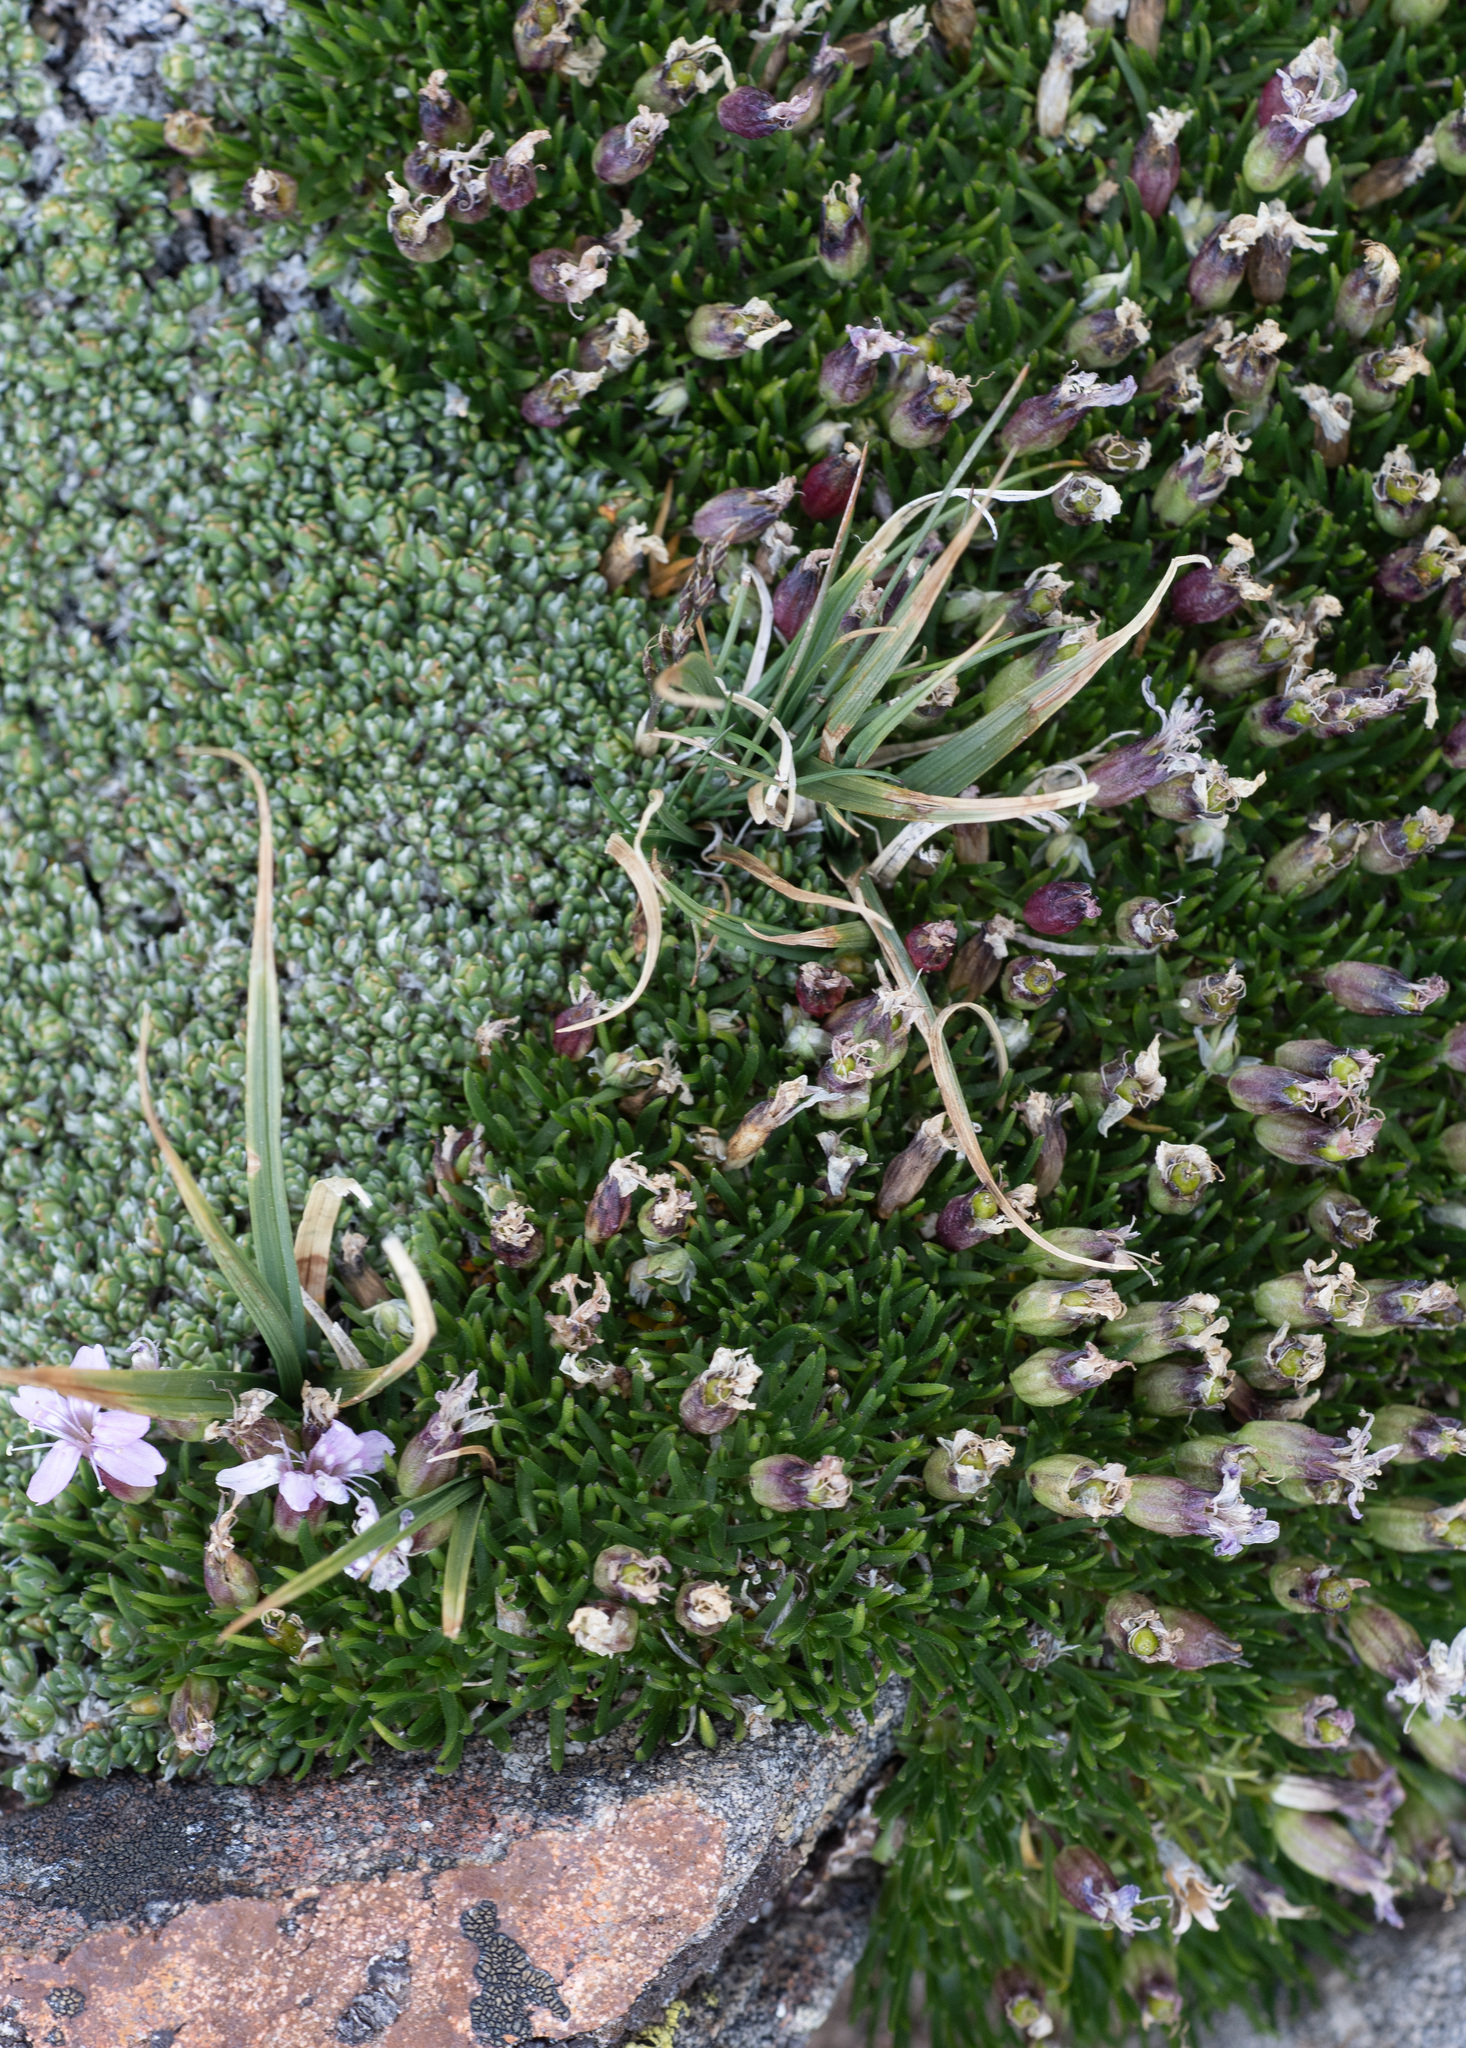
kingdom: Plantae
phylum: Tracheophyta
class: Magnoliopsida
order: Caryophyllales
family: Caryophyllaceae
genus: Silene
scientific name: Silene acaulis
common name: Moss campion
